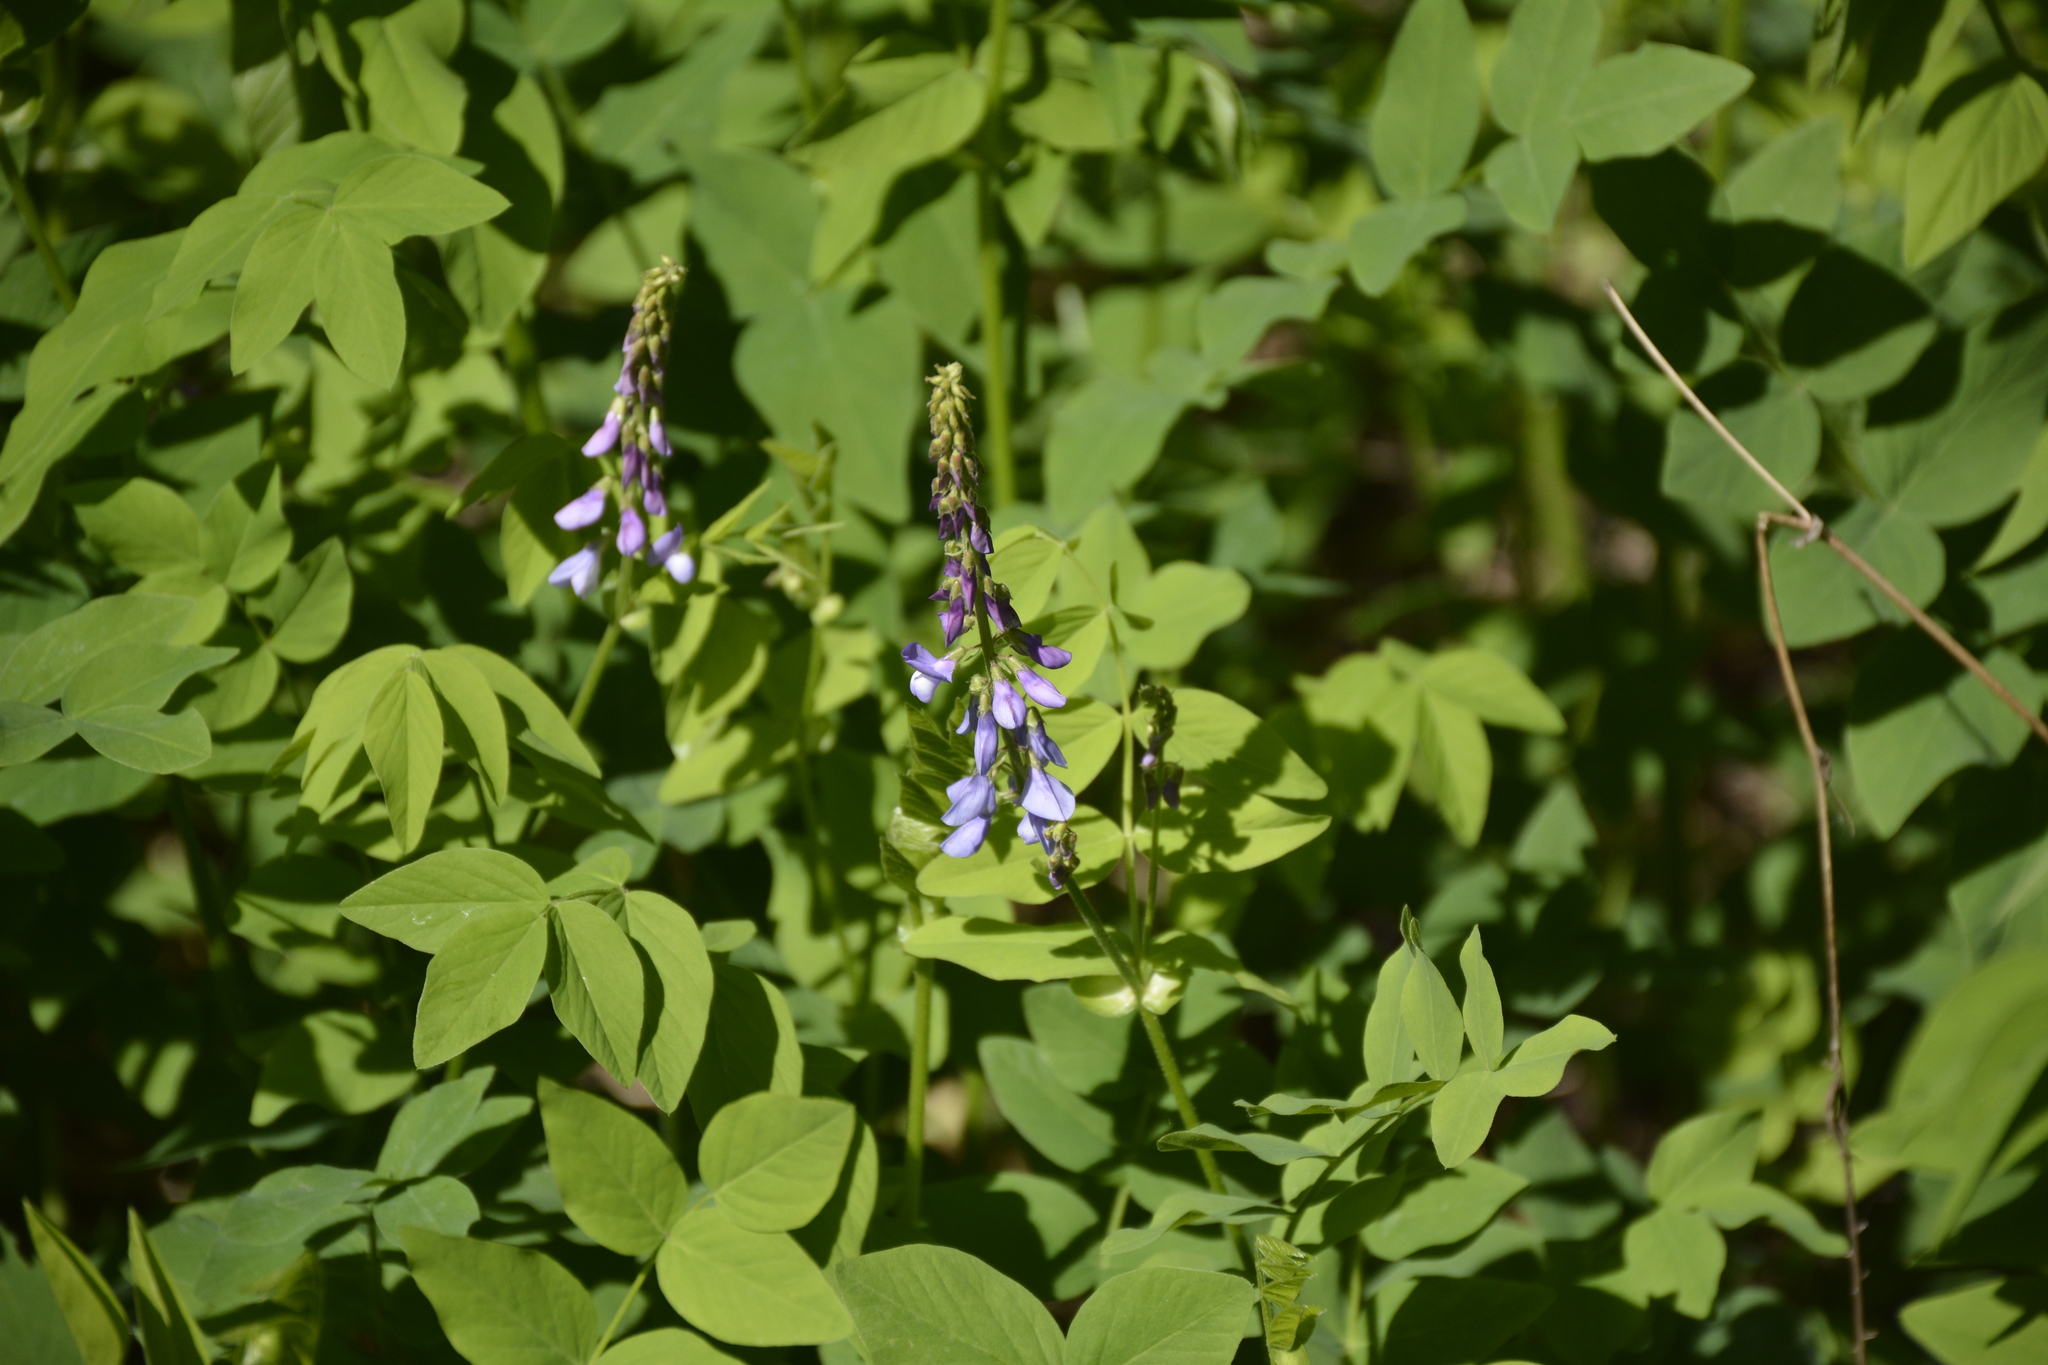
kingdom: Plantae
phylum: Tracheophyta
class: Magnoliopsida
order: Fabales
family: Fabaceae
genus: Galega
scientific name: Galega orientalis
